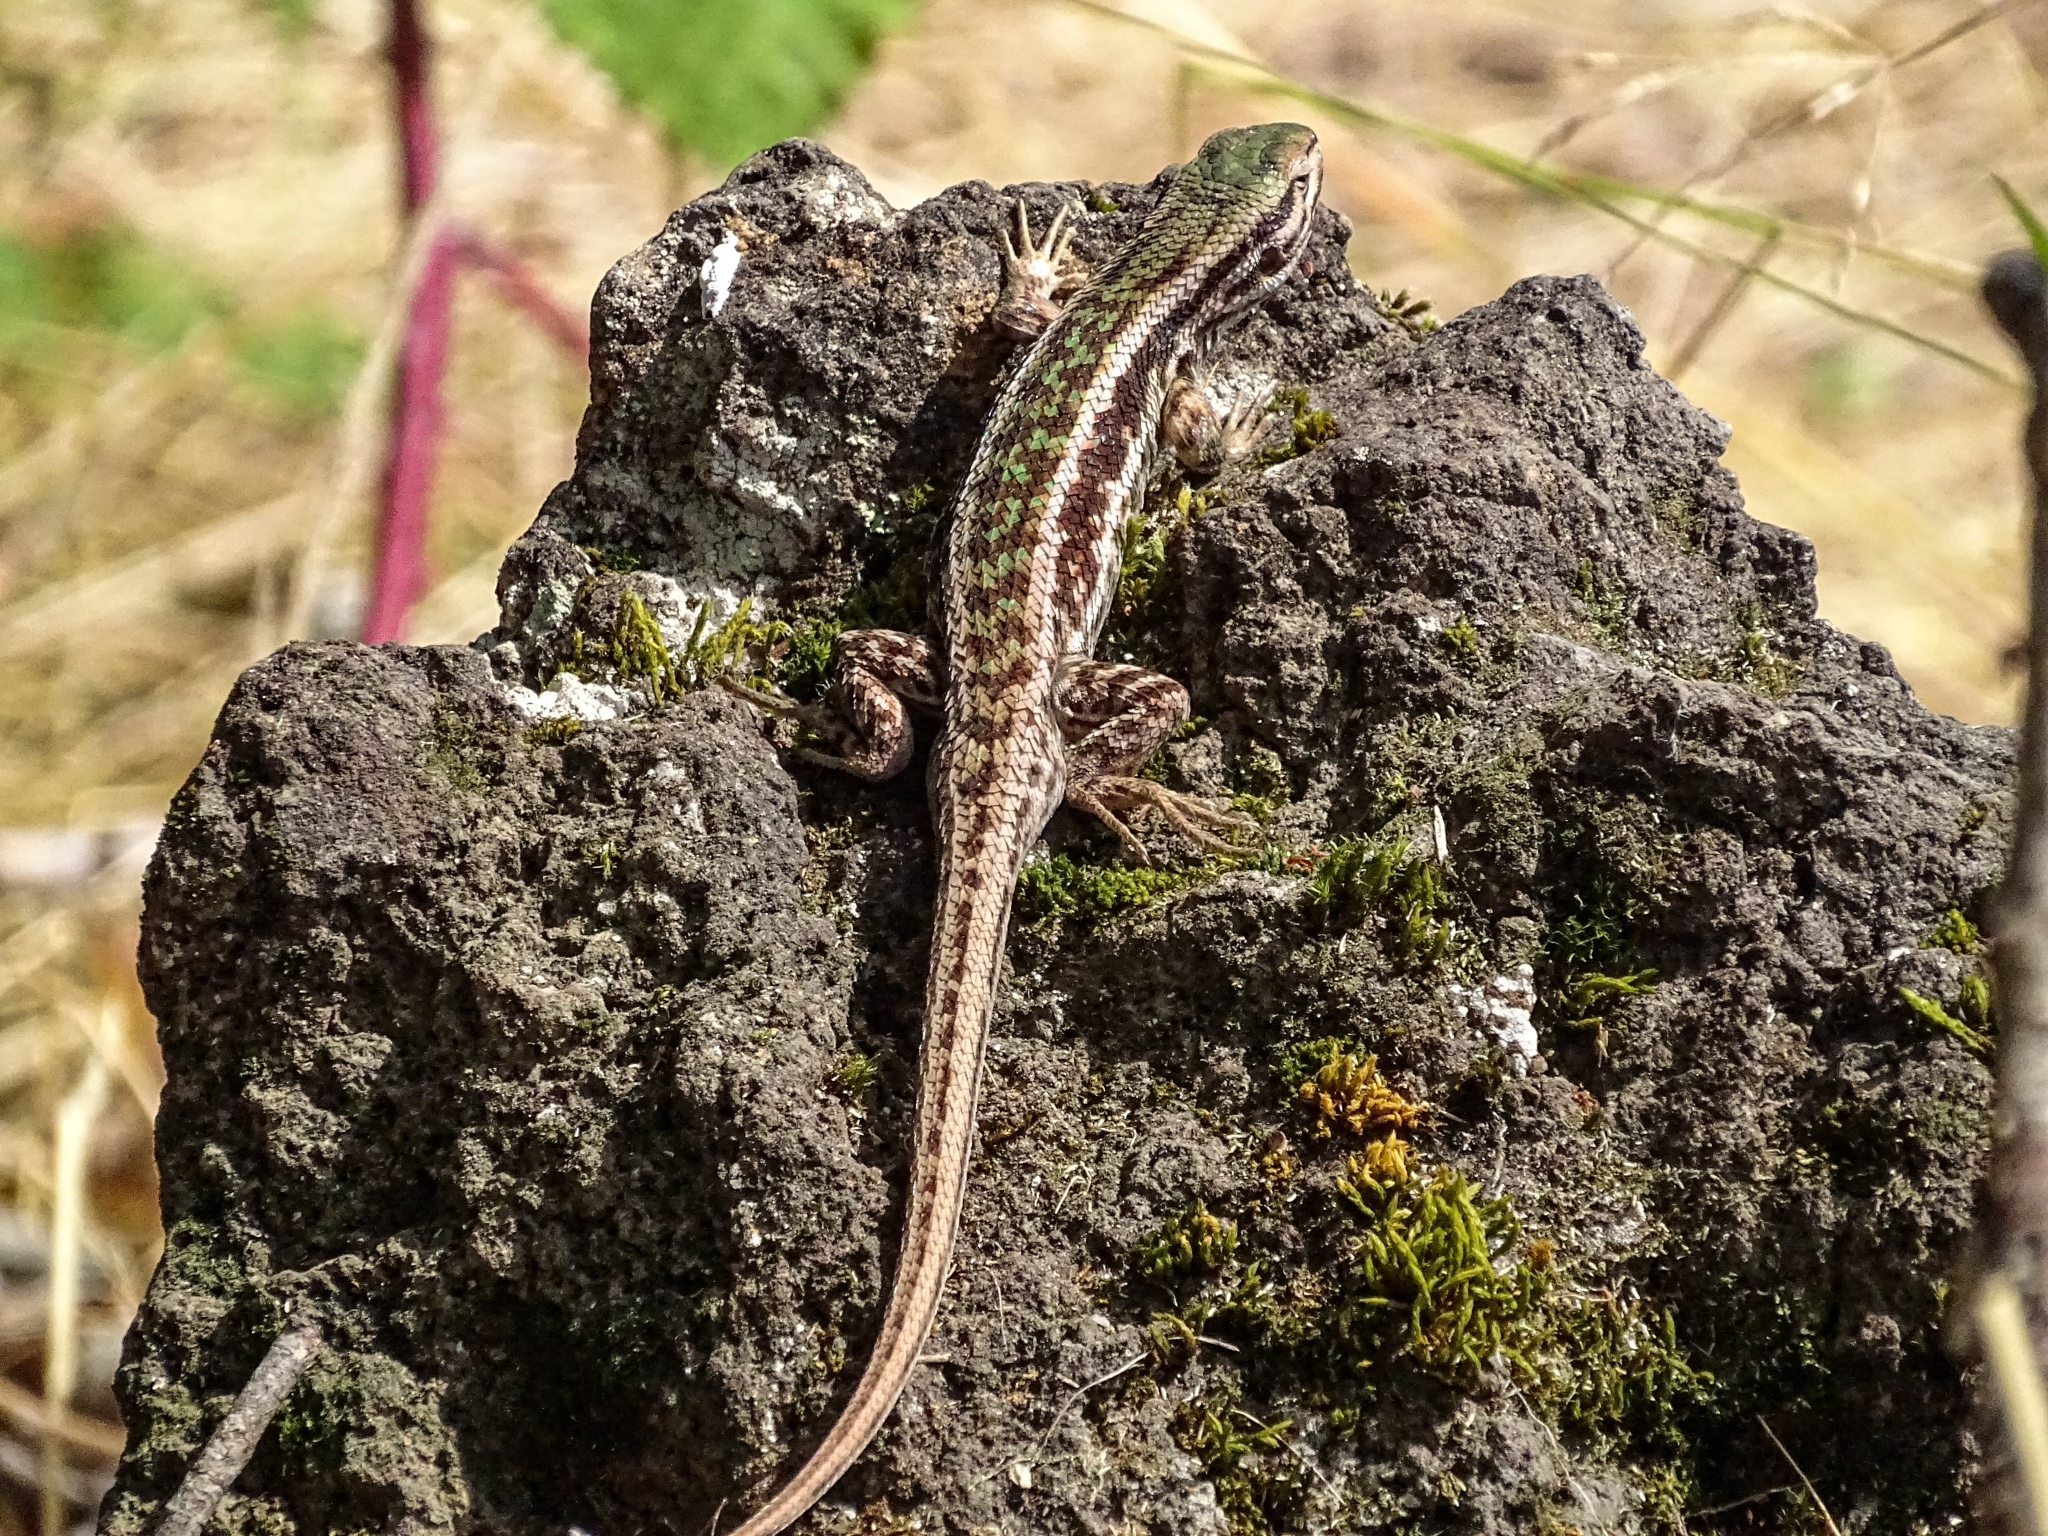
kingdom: Animalia
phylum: Chordata
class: Squamata
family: Liolaemidae
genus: Liolaemus
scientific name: Liolaemus chiliensis
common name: Chilean tree iguana
